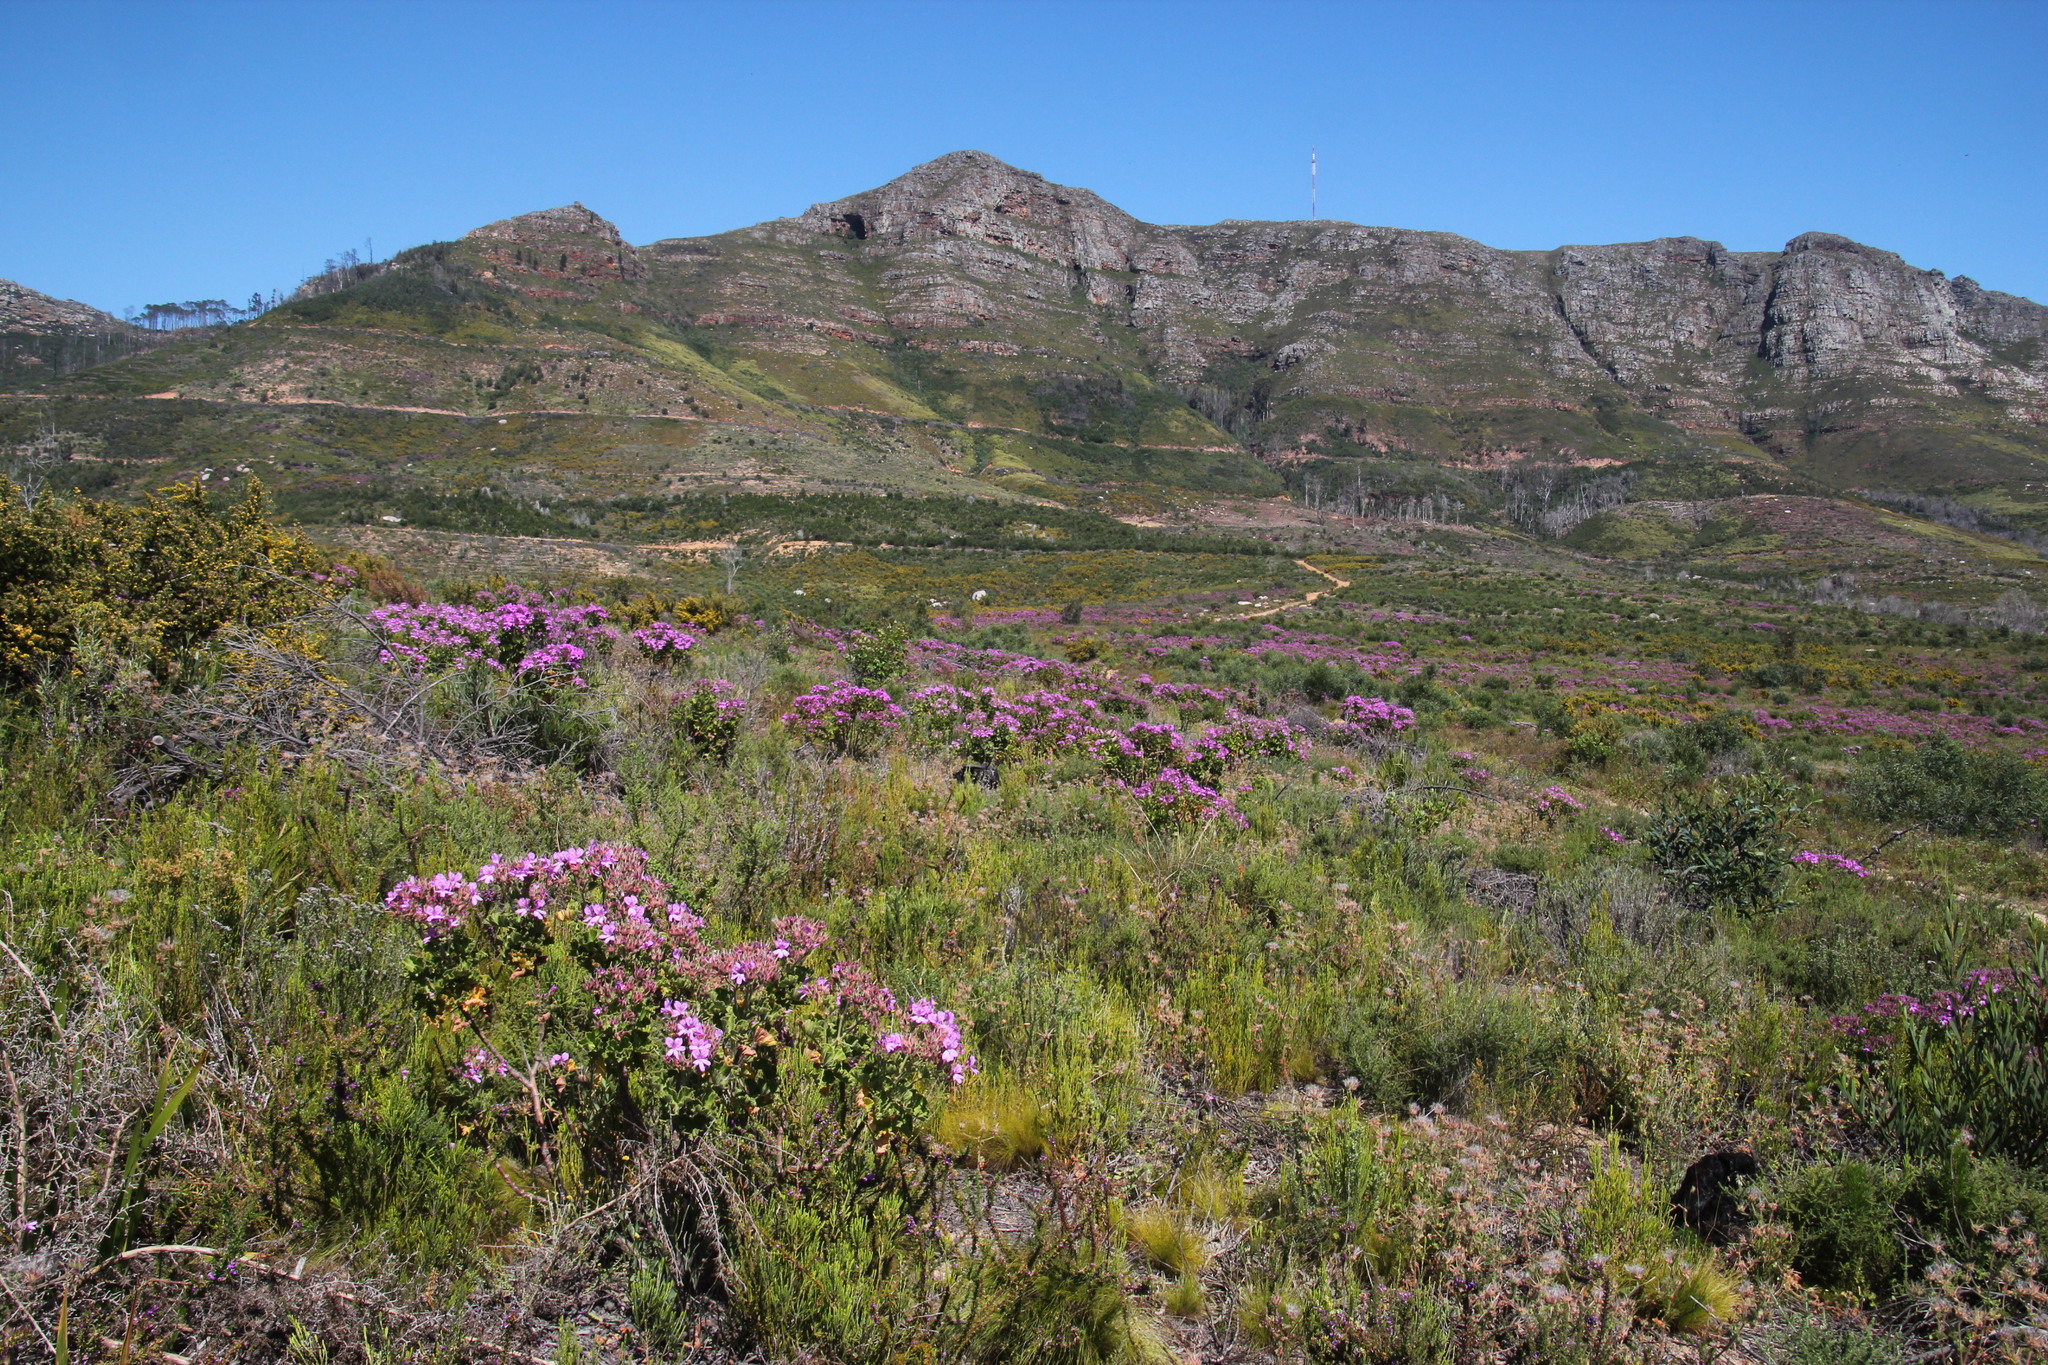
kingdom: Plantae
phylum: Tracheophyta
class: Magnoliopsida
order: Geraniales
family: Geraniaceae
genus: Pelargonium
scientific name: Pelargonium cucullatum
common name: Tree pelargonium
